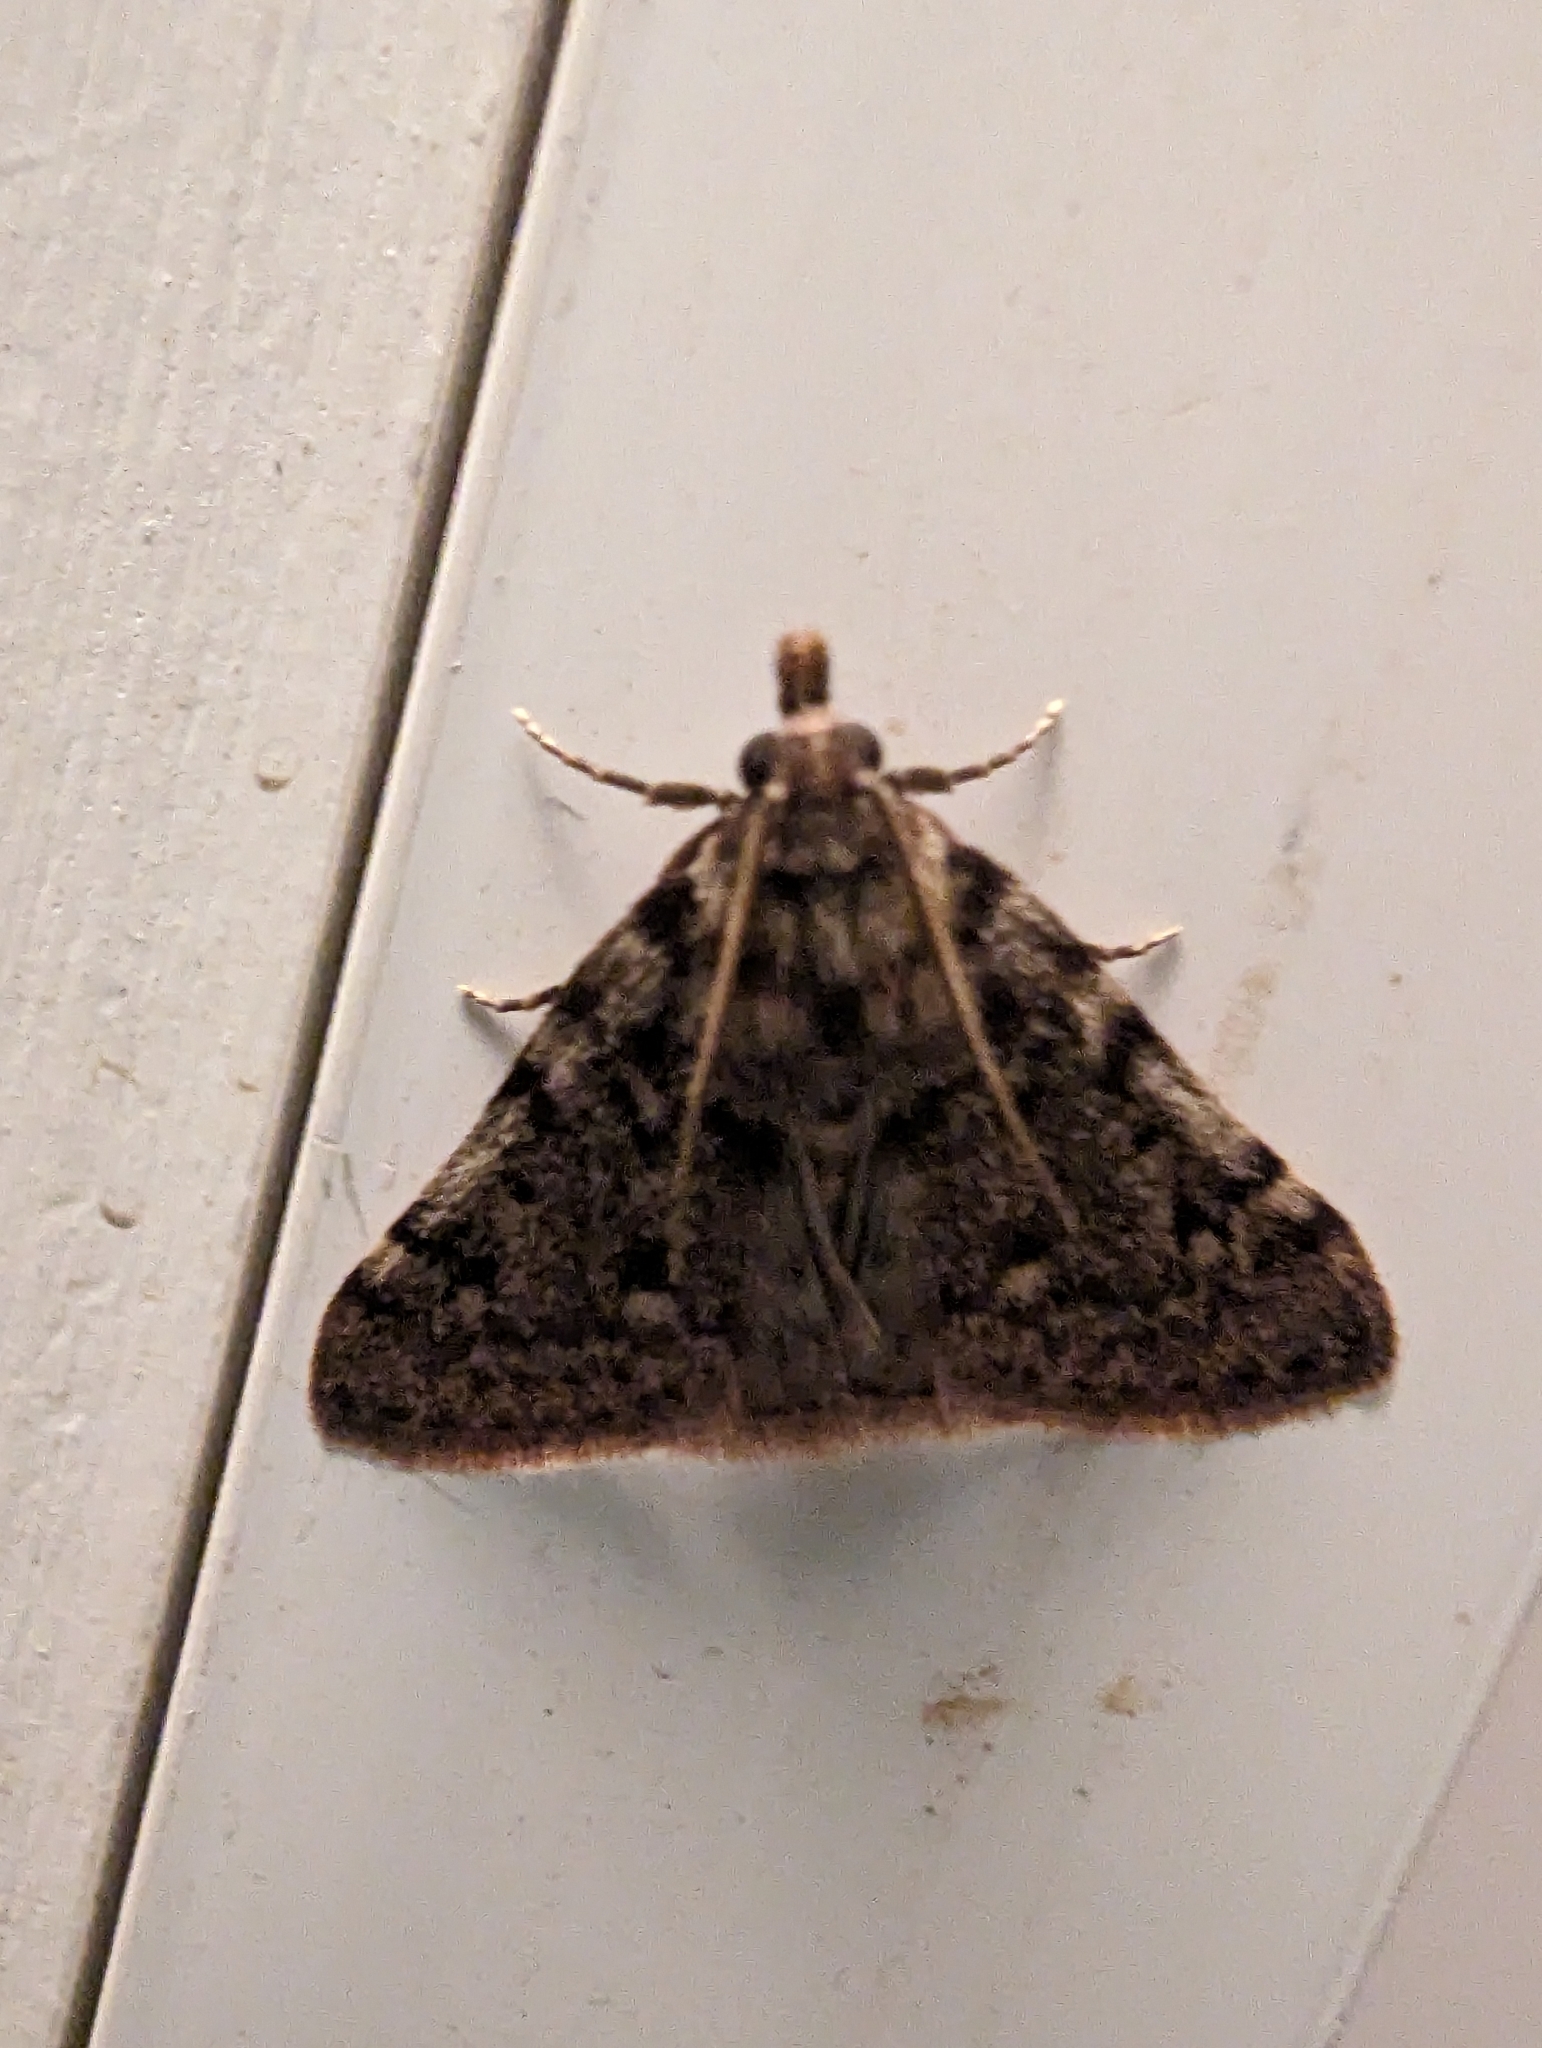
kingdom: Animalia
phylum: Arthropoda
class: Insecta
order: Lepidoptera
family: Pyralidae
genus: Aglossa
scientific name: Aglossa pinguinalis
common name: Large tabby
